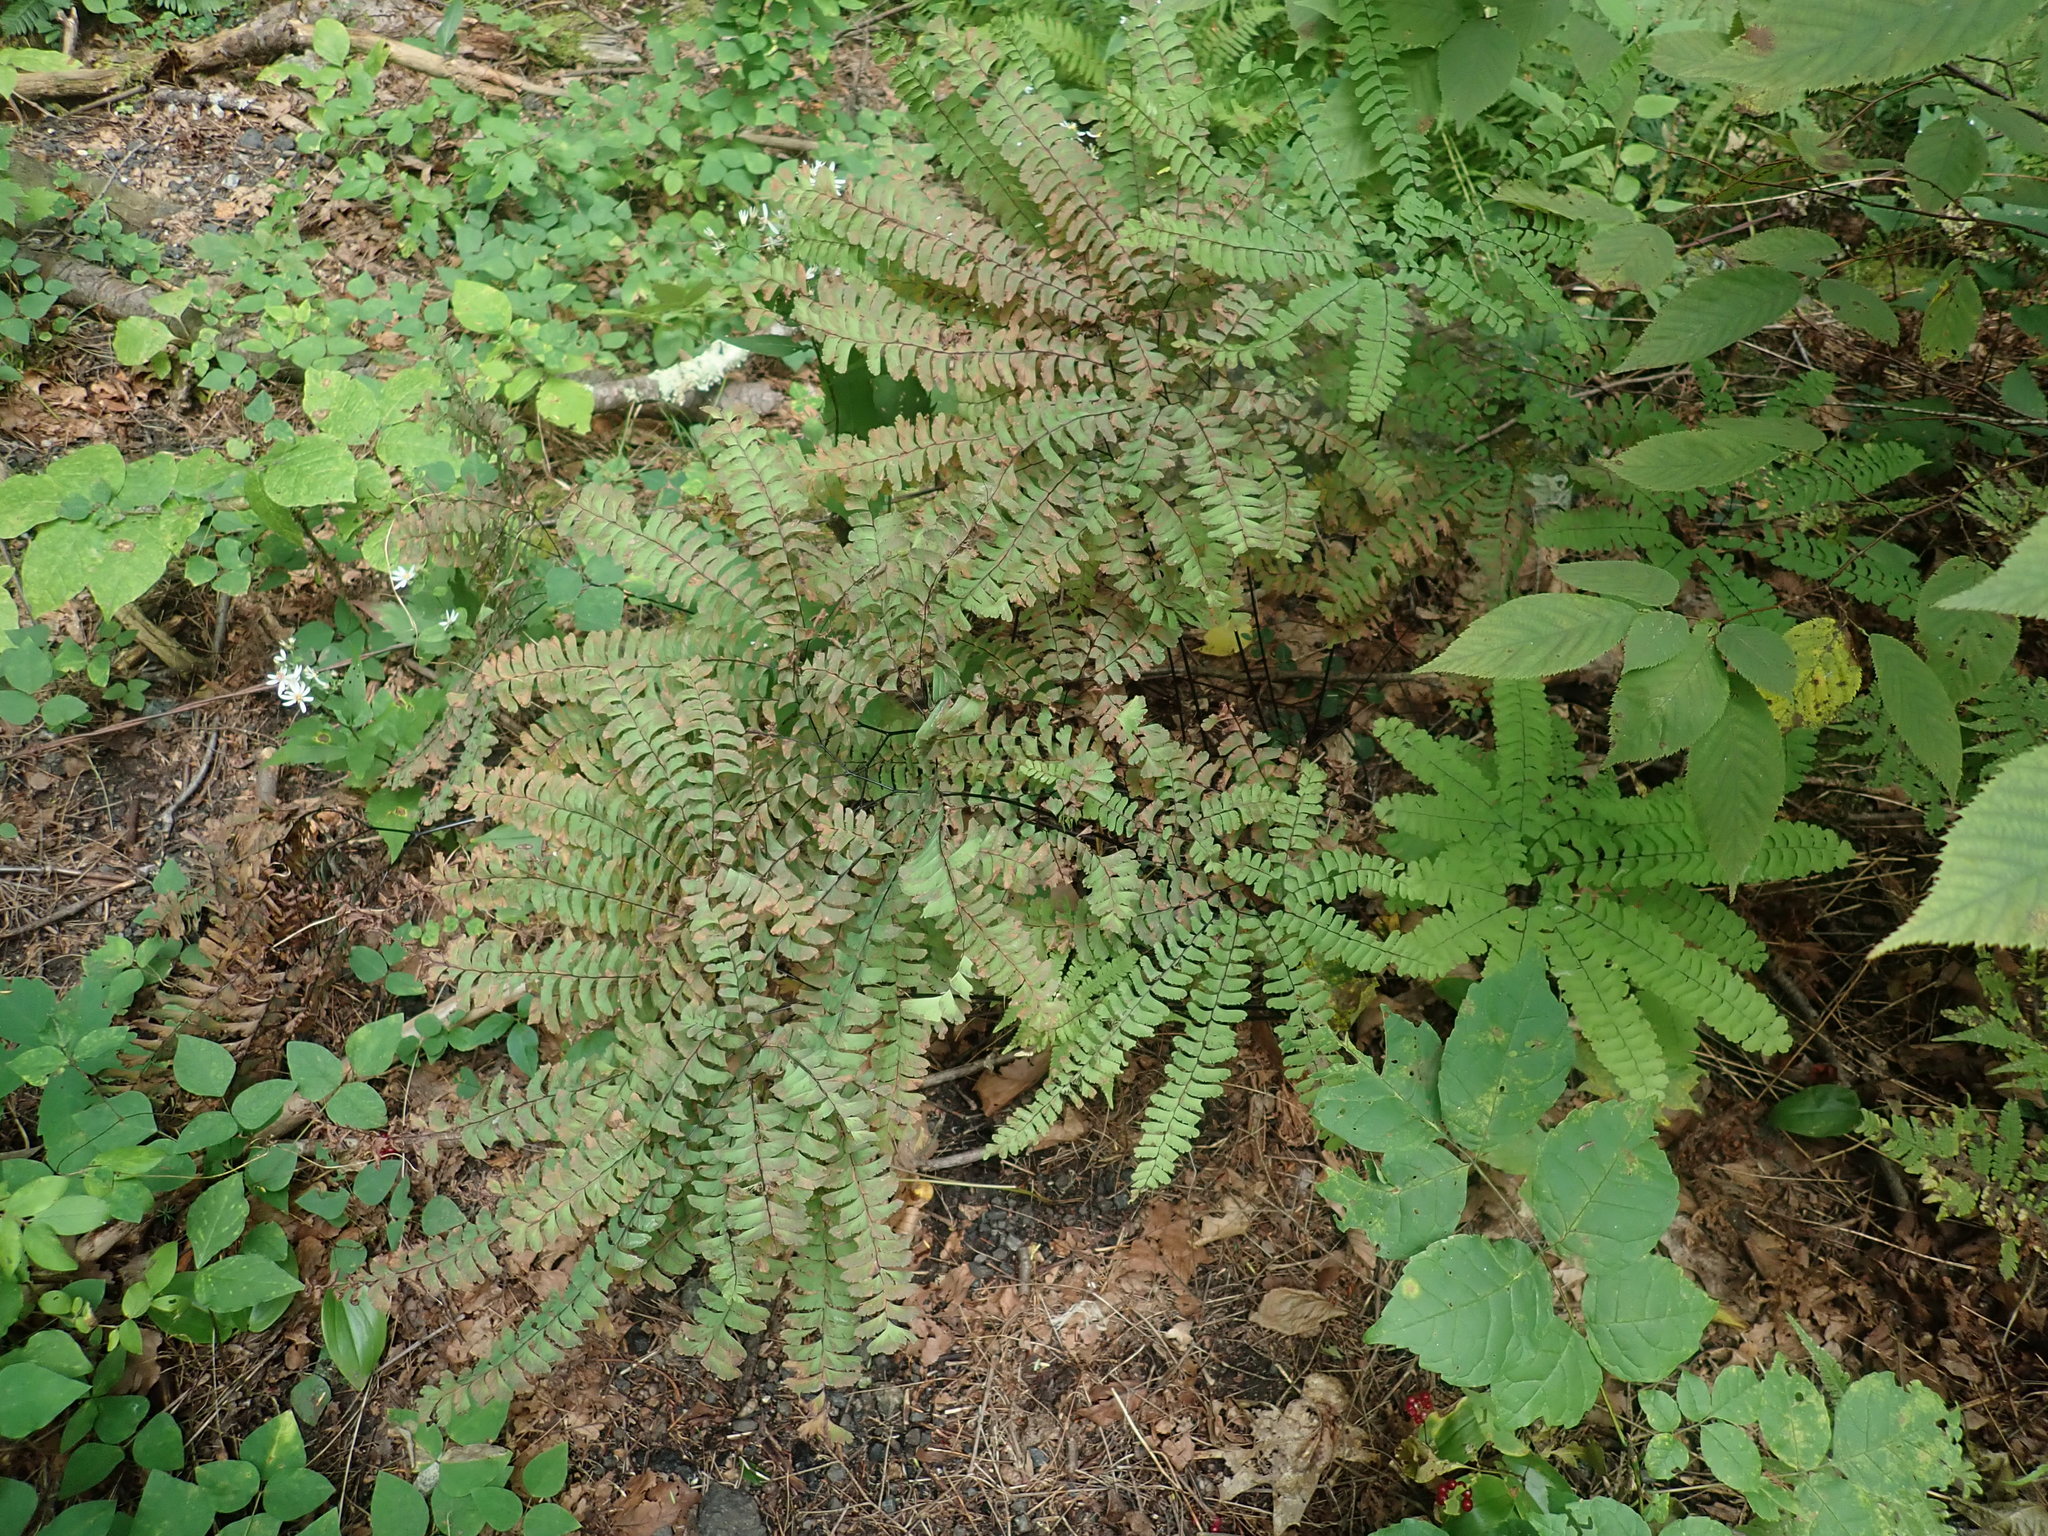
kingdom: Plantae
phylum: Tracheophyta
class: Polypodiopsida
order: Polypodiales
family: Pteridaceae
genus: Adiantum
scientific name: Adiantum pedatum
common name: Five-finger fern
